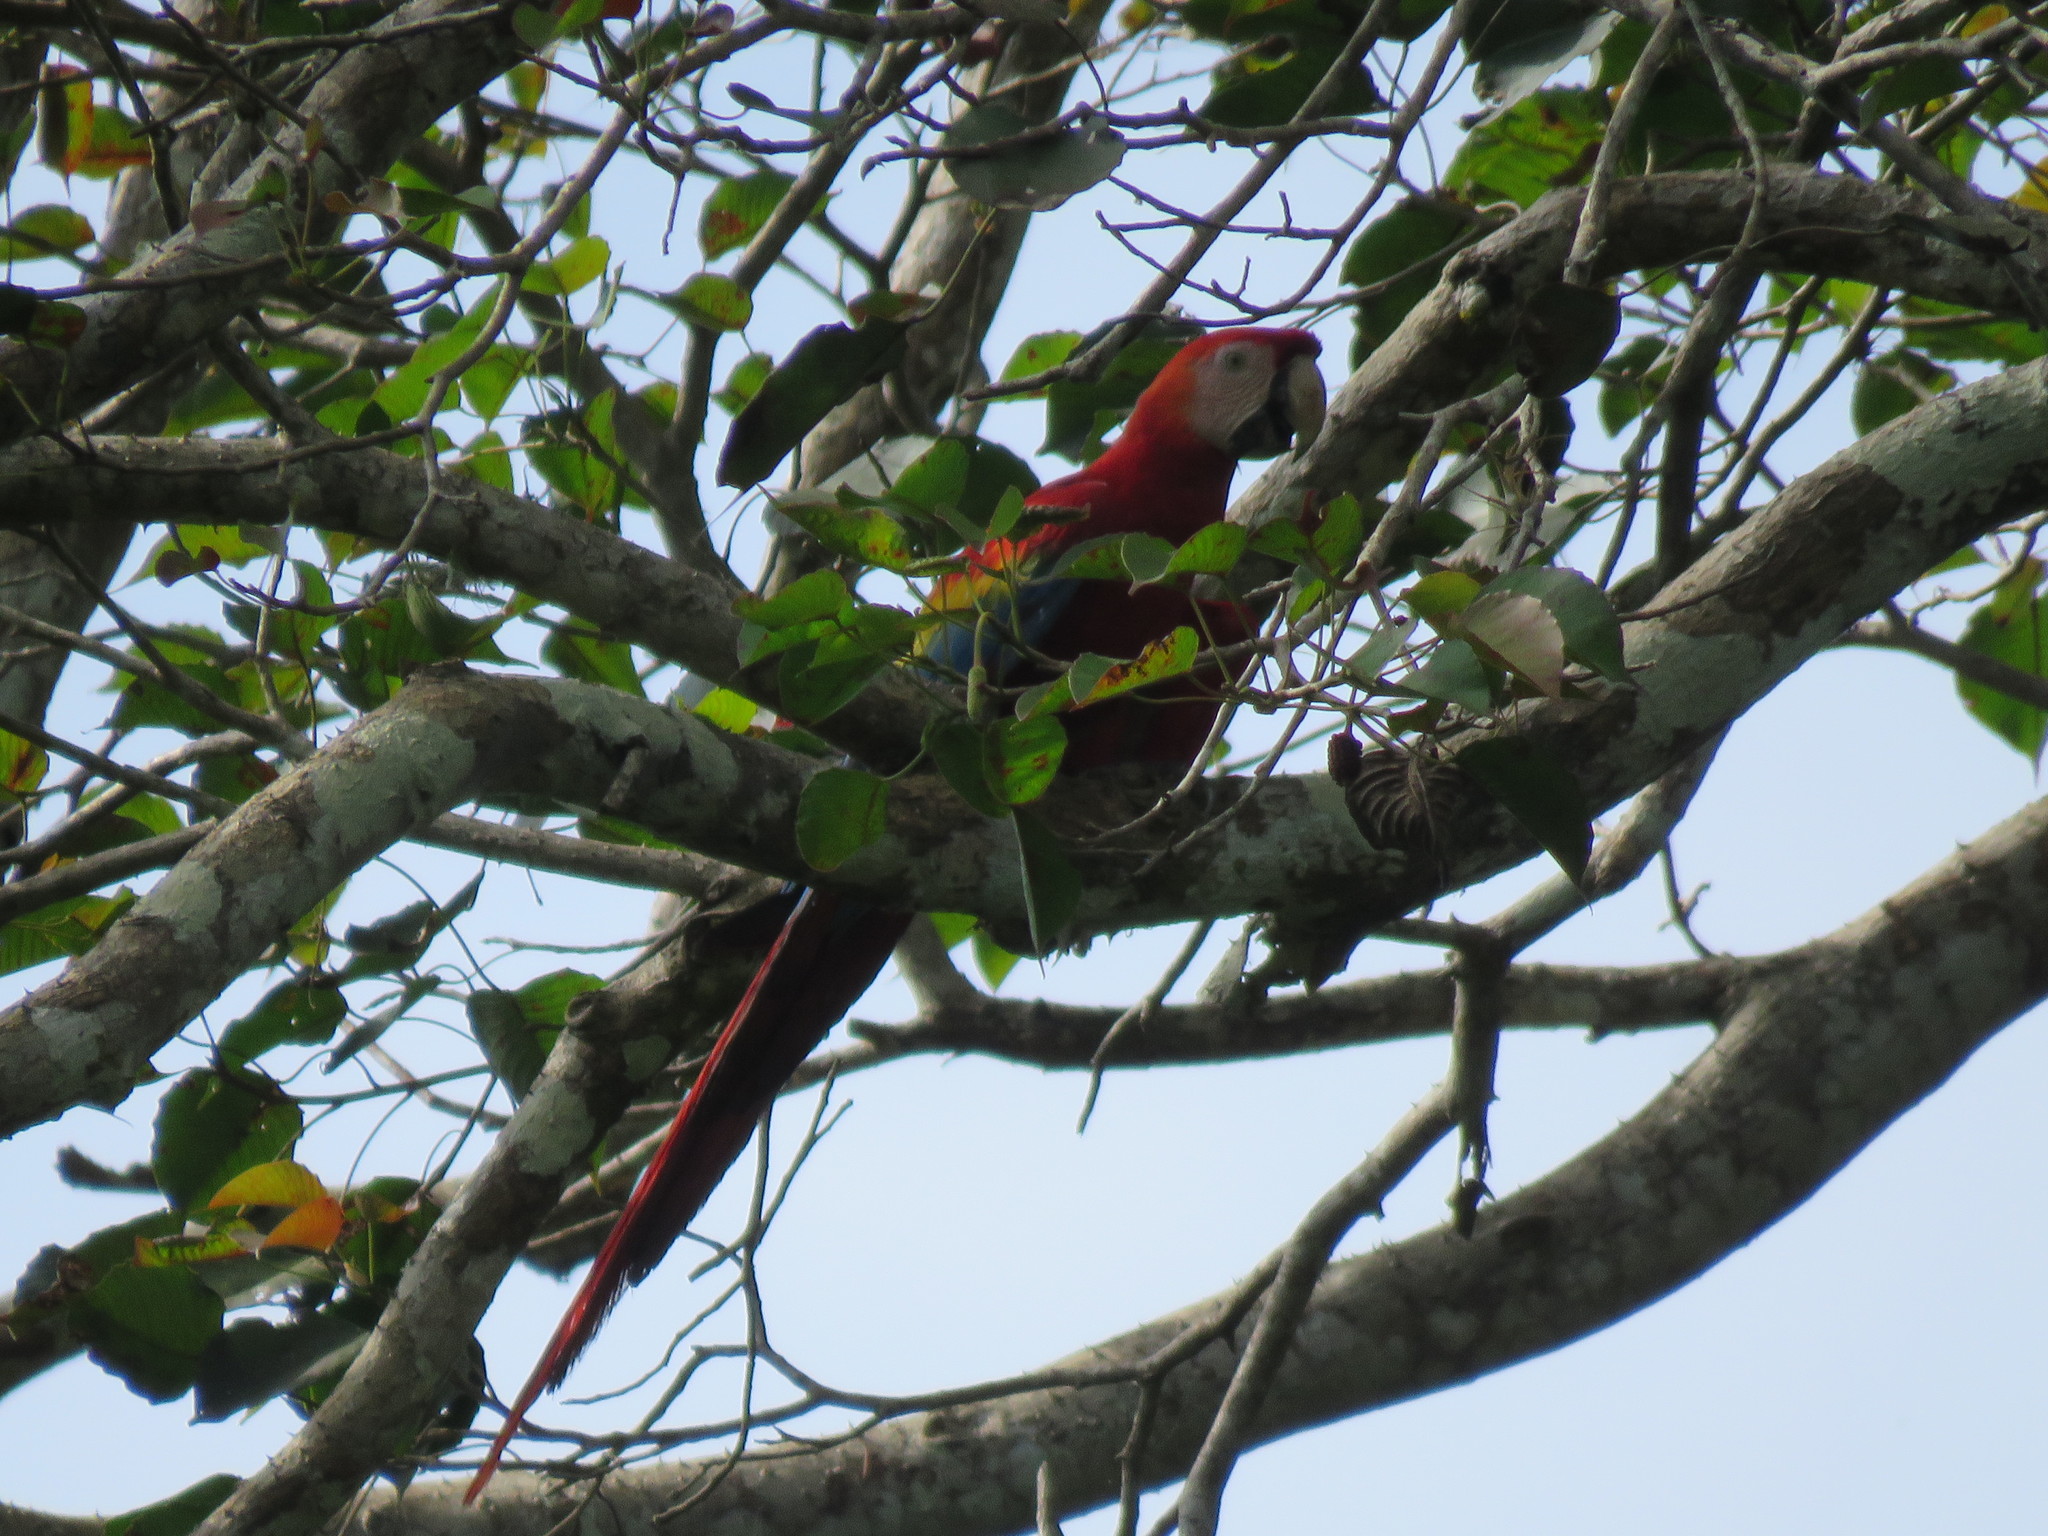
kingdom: Animalia
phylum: Chordata
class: Aves
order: Psittaciformes
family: Psittacidae
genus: Ara
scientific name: Ara macao
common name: Scarlet macaw
